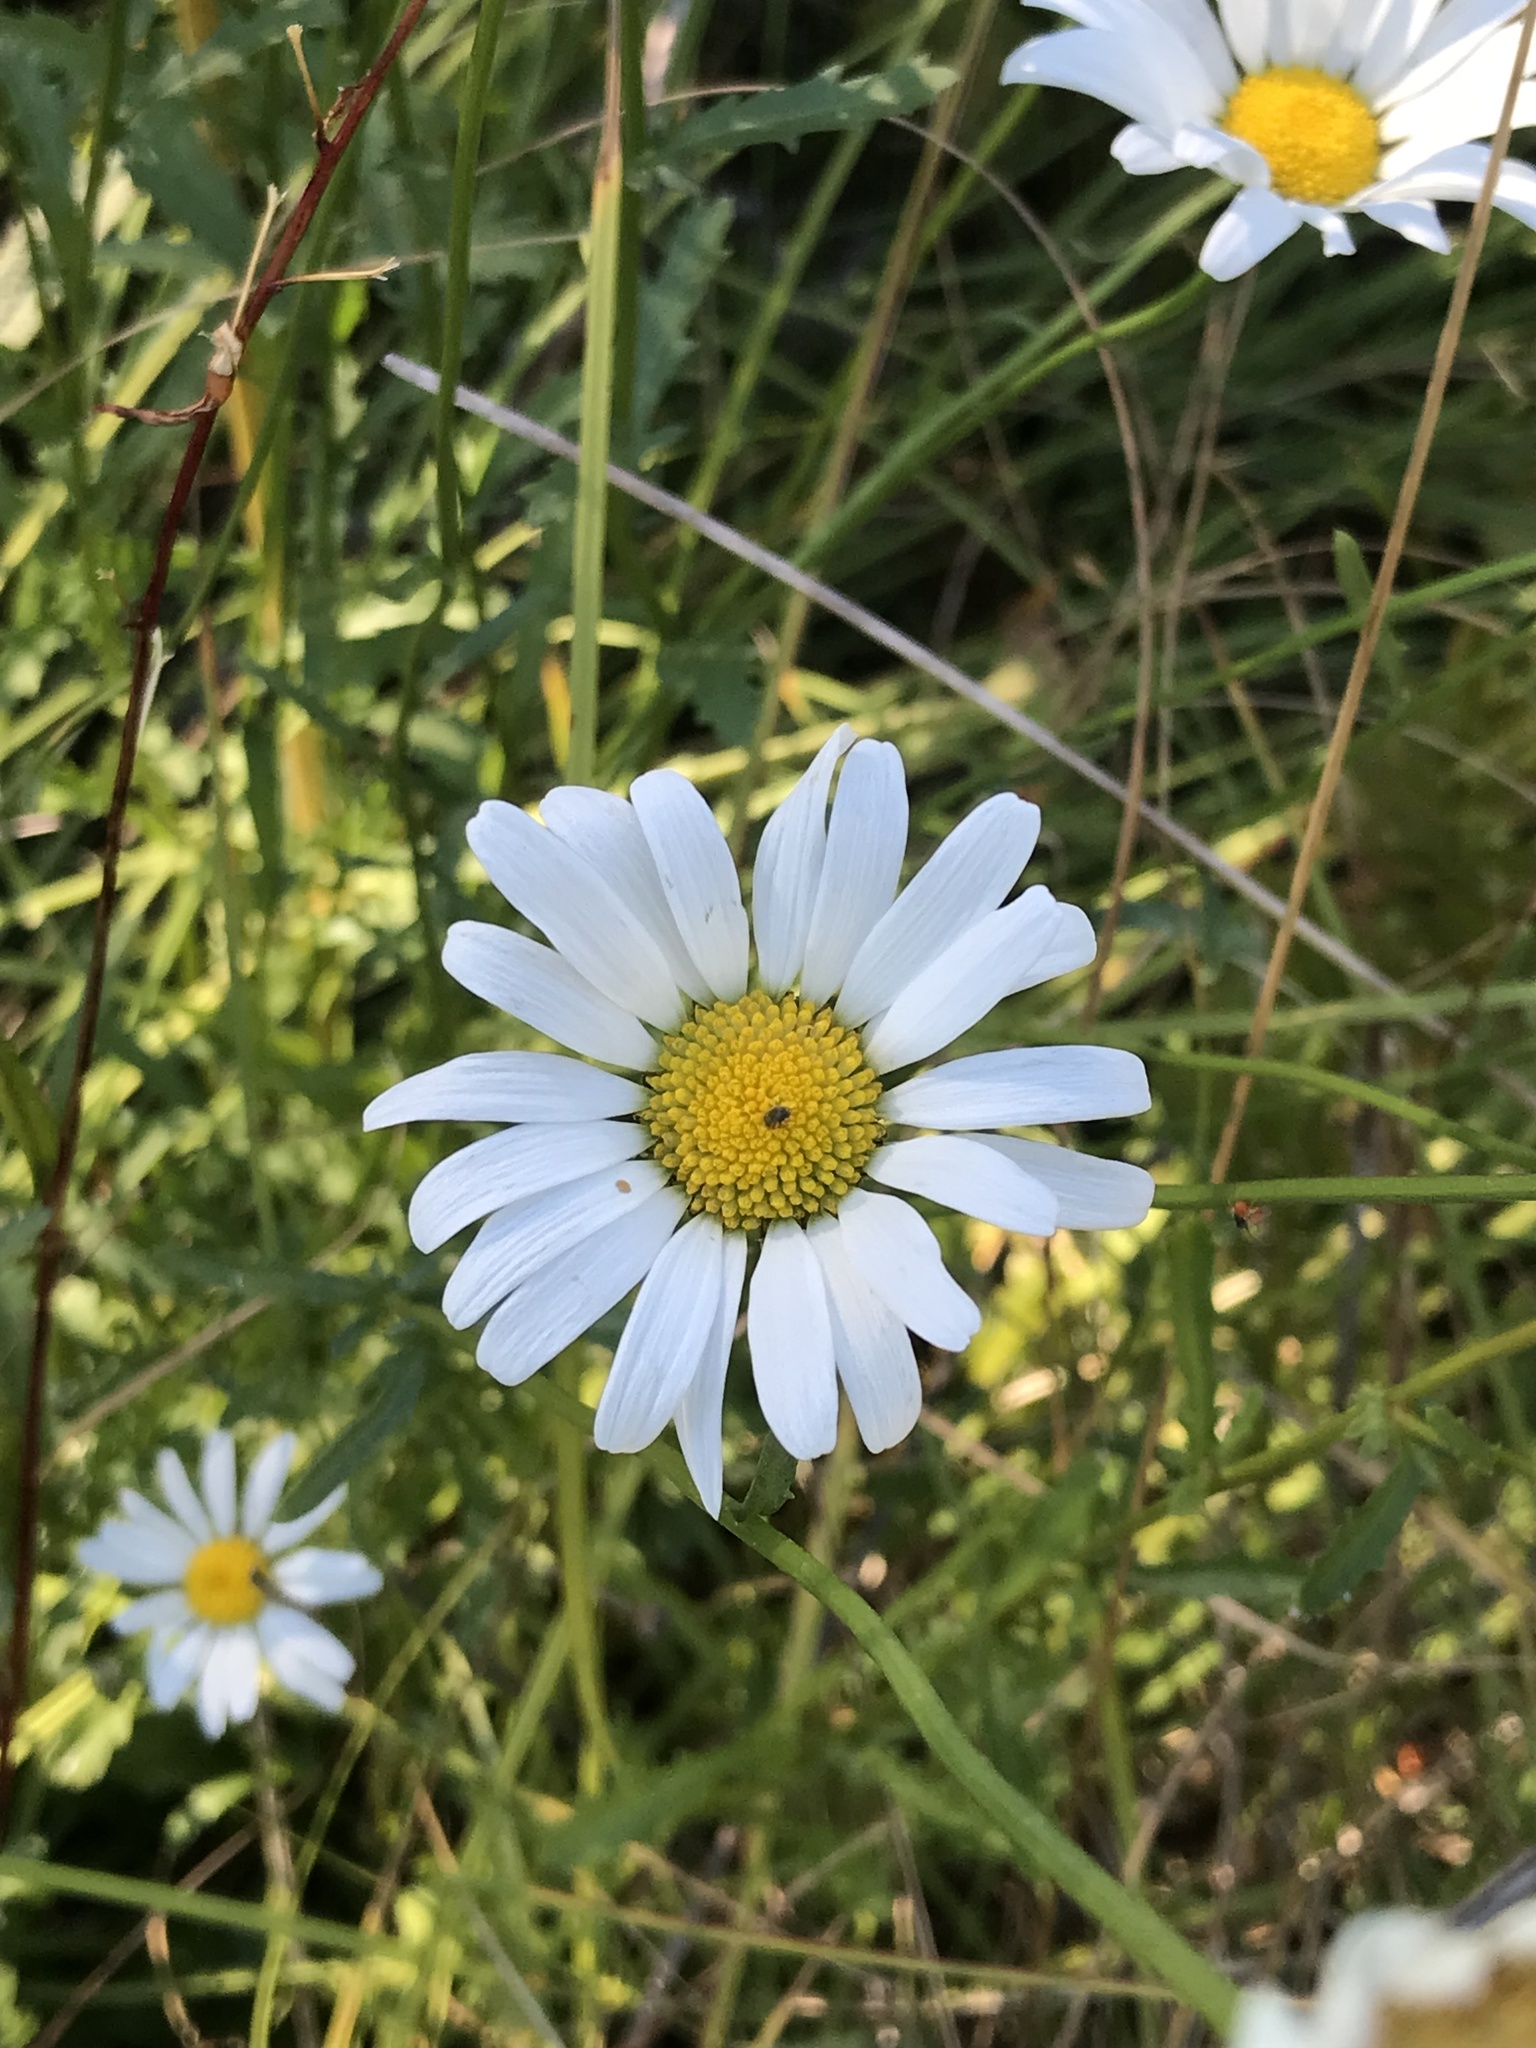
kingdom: Plantae
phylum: Tracheophyta
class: Magnoliopsida
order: Asterales
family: Asteraceae
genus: Leucanthemum
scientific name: Leucanthemum vulgare
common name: Oxeye daisy
